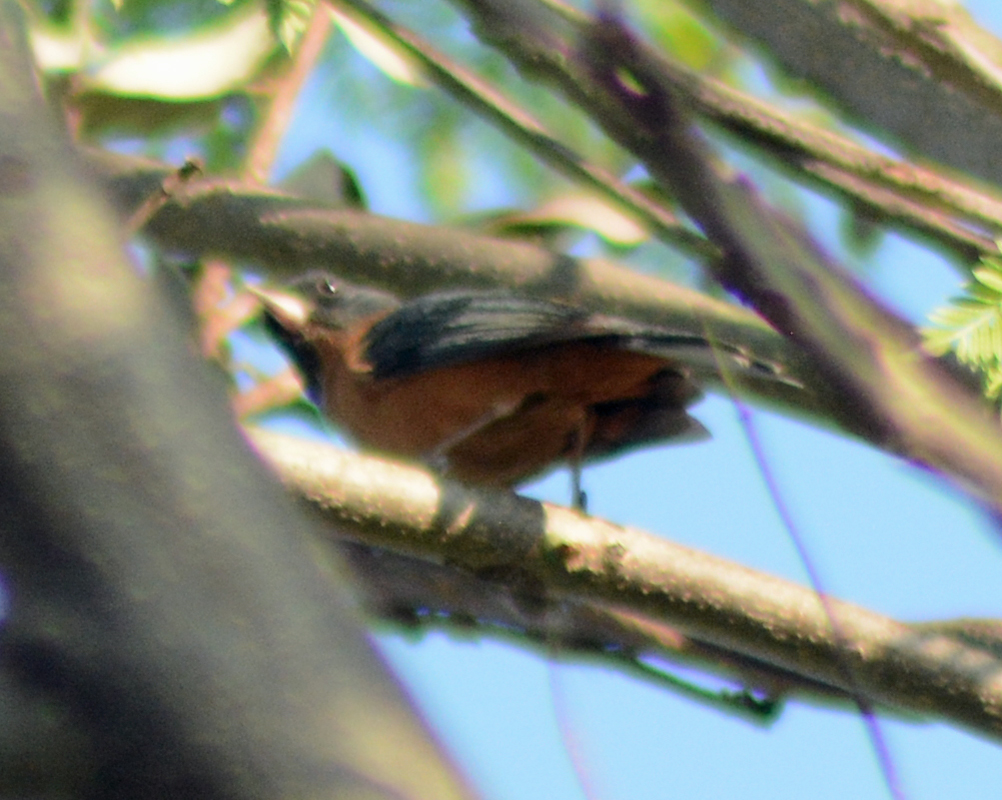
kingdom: Animalia
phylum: Chordata
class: Aves
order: Passeriformes
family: Thraupidae
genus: Diglossa
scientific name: Diglossa baritula
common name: Cinnamon-bellied flowerpiercer
